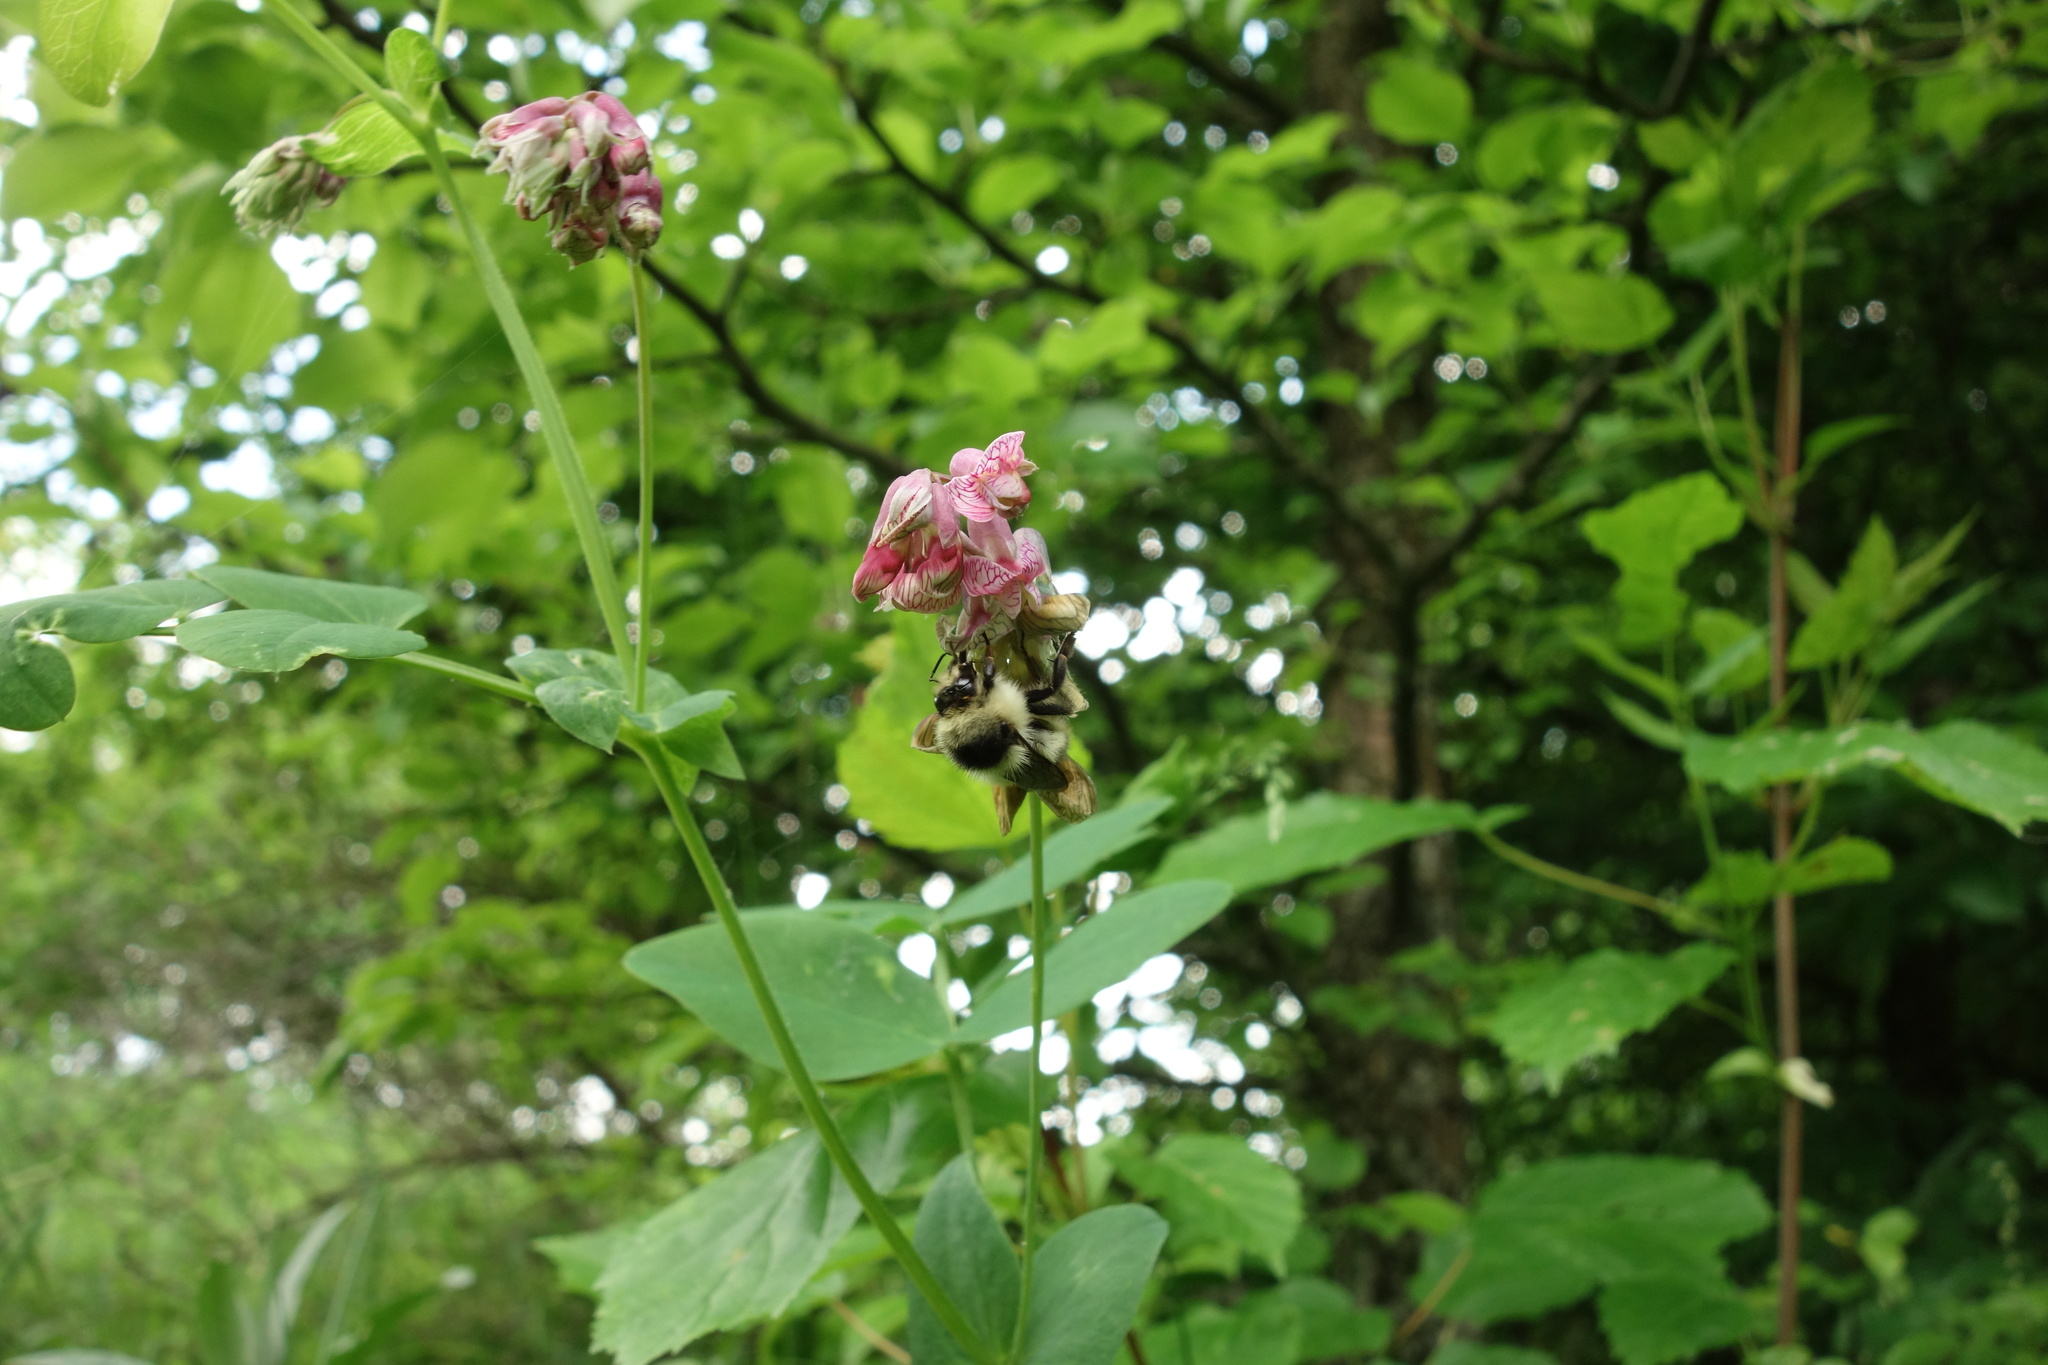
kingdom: Animalia
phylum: Arthropoda
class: Insecta
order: Hymenoptera
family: Apidae
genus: Bombus
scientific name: Bombus sylvarum
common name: Shrill carder bee
